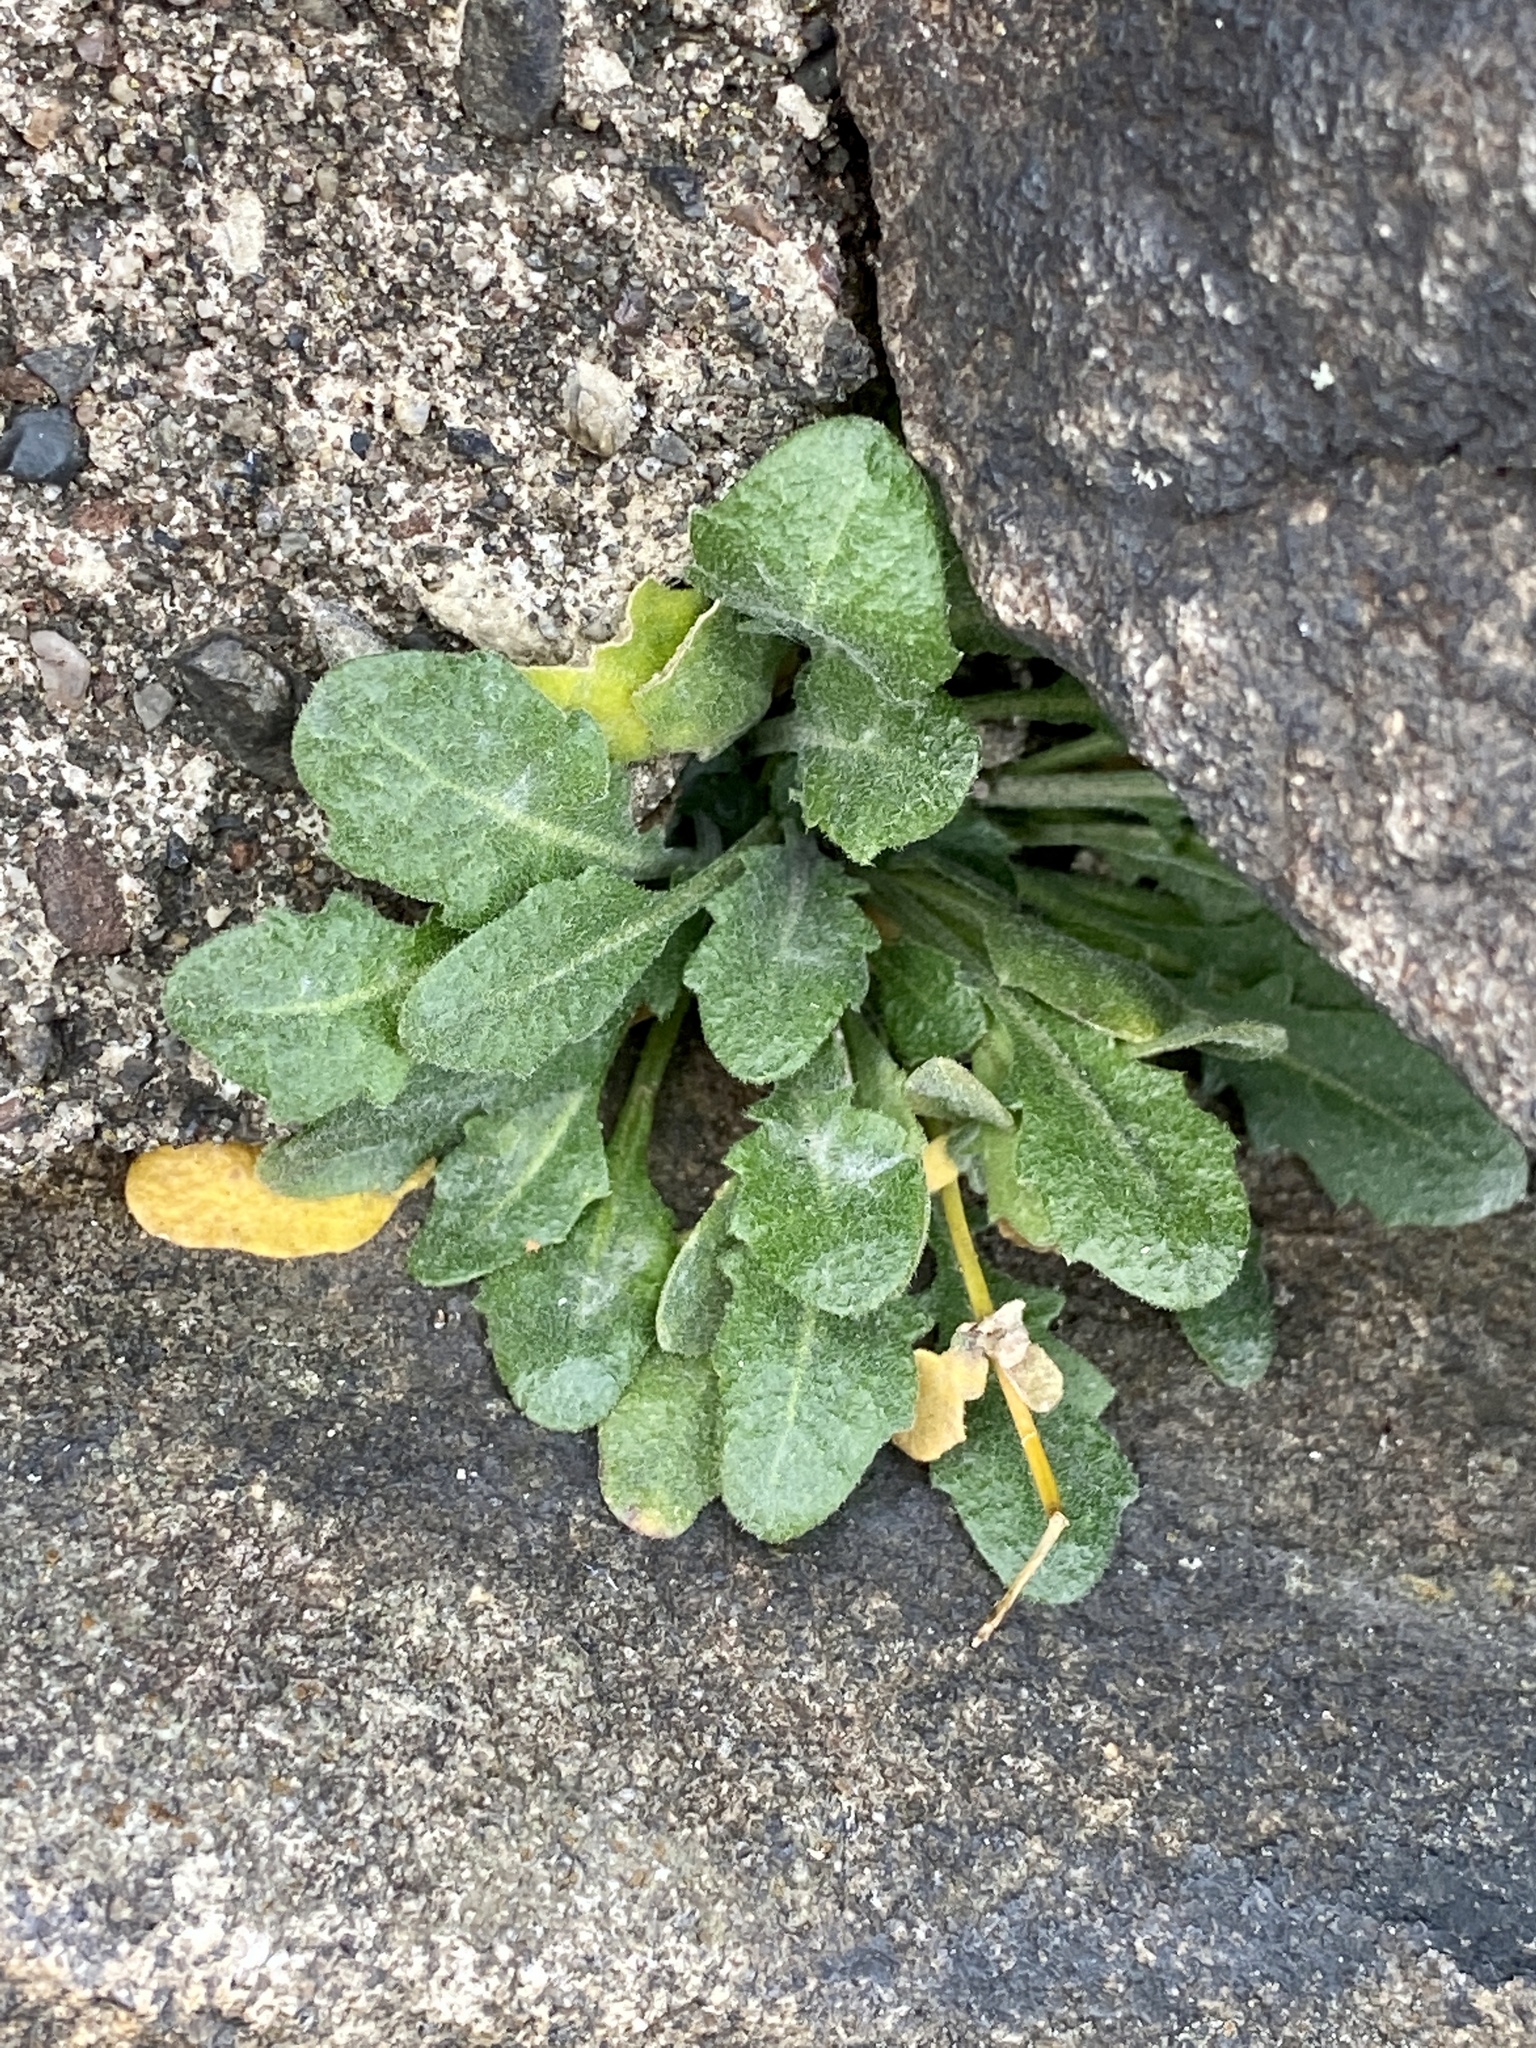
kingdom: Plantae
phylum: Tracheophyta
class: Magnoliopsida
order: Brassicales
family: Brassicaceae
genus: Arabidopsis
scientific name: Arabidopsis lyrata
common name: Lyrate rockcress
